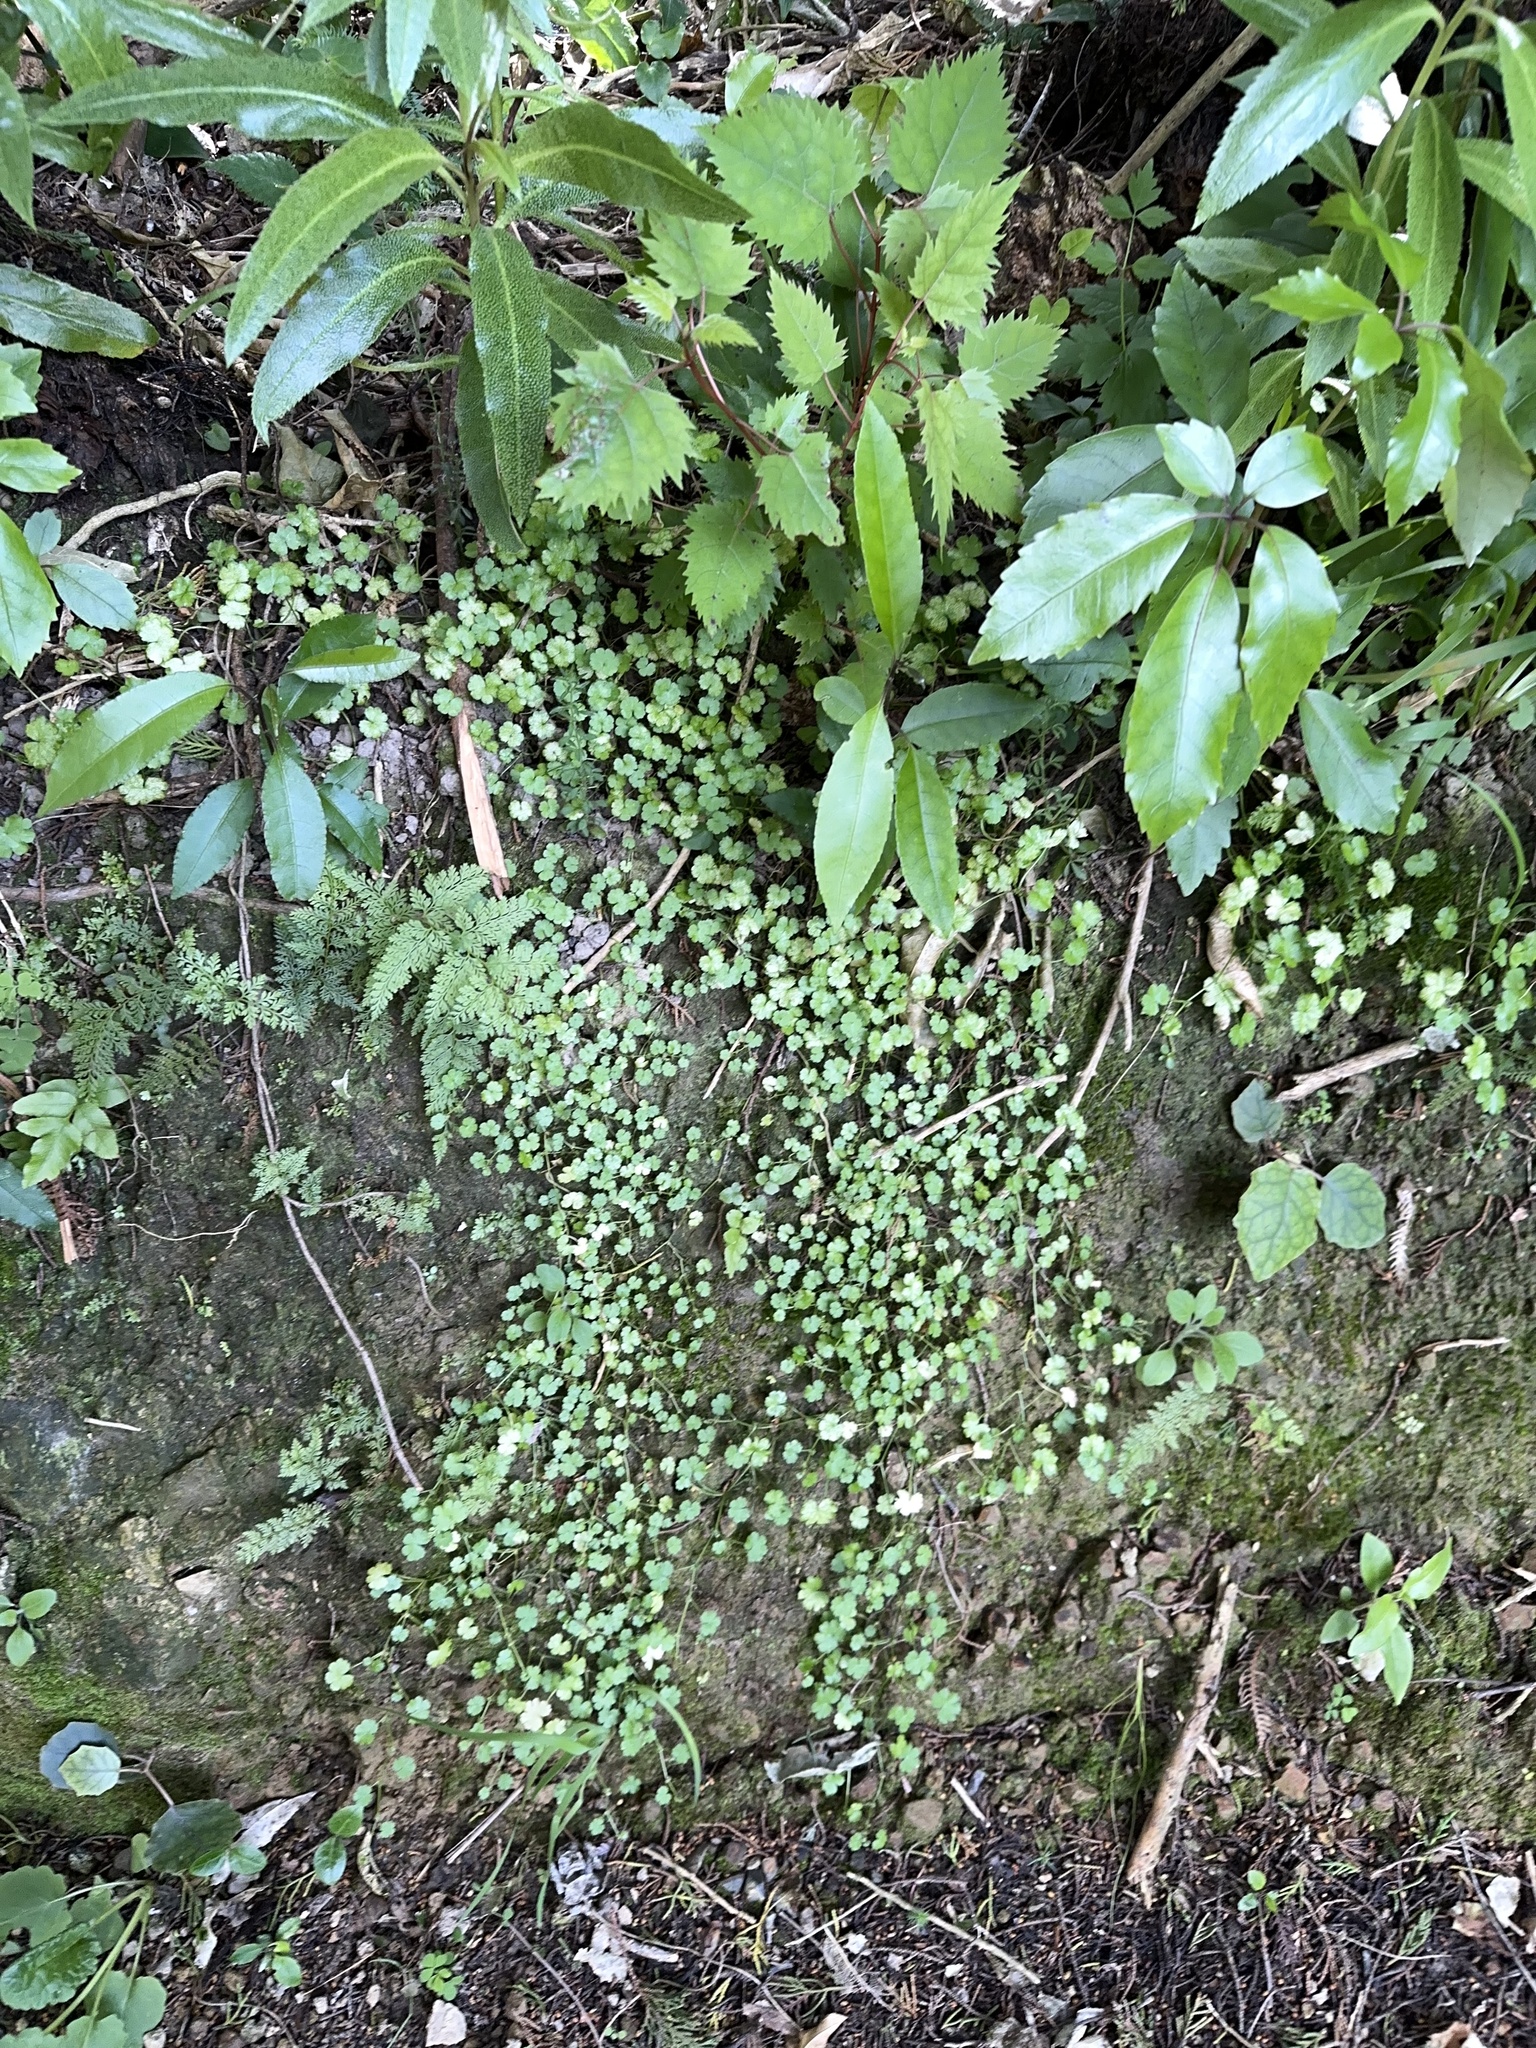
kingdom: Plantae
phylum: Tracheophyta
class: Magnoliopsida
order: Apiales
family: Araliaceae
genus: Hydrocotyle
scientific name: Hydrocotyle heteromeria
